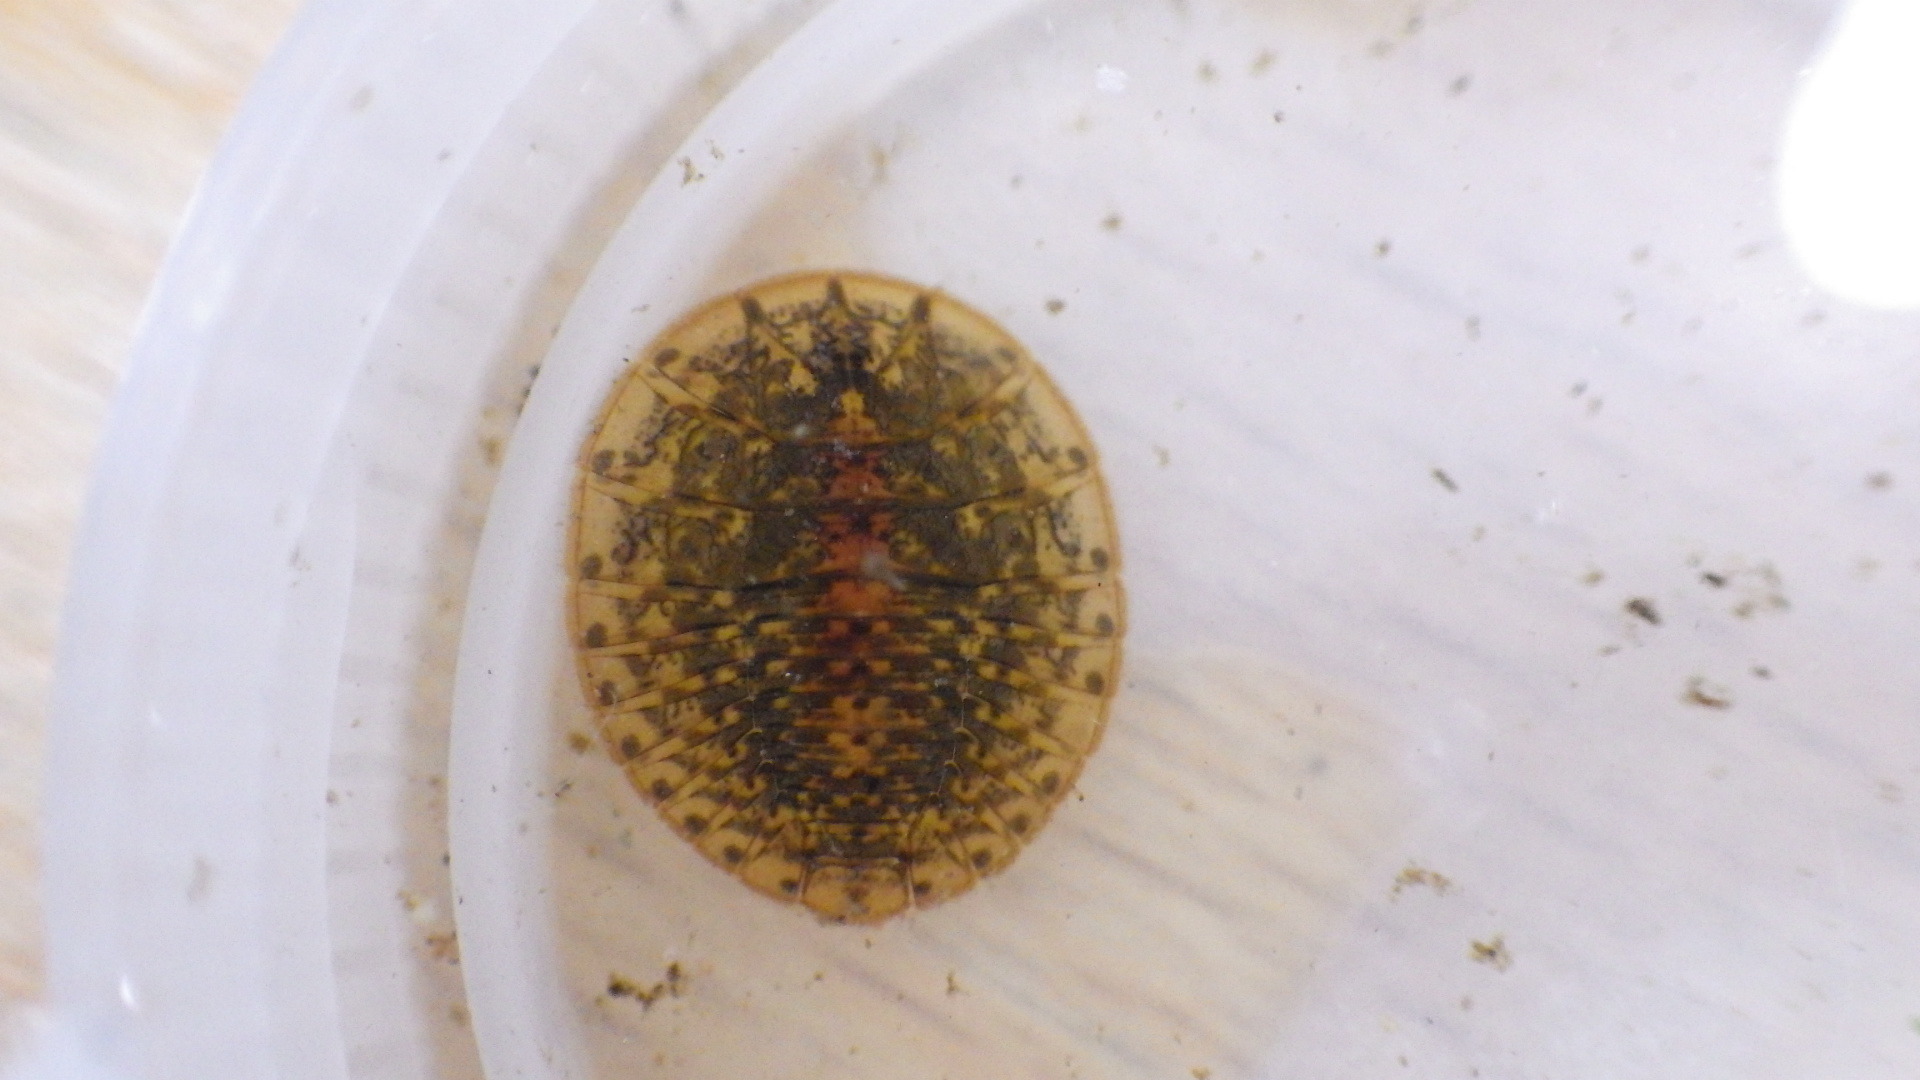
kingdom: Animalia
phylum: Arthropoda
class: Insecta
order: Coleoptera
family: Psephenidae
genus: Psephenus
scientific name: Psephenus herricki
